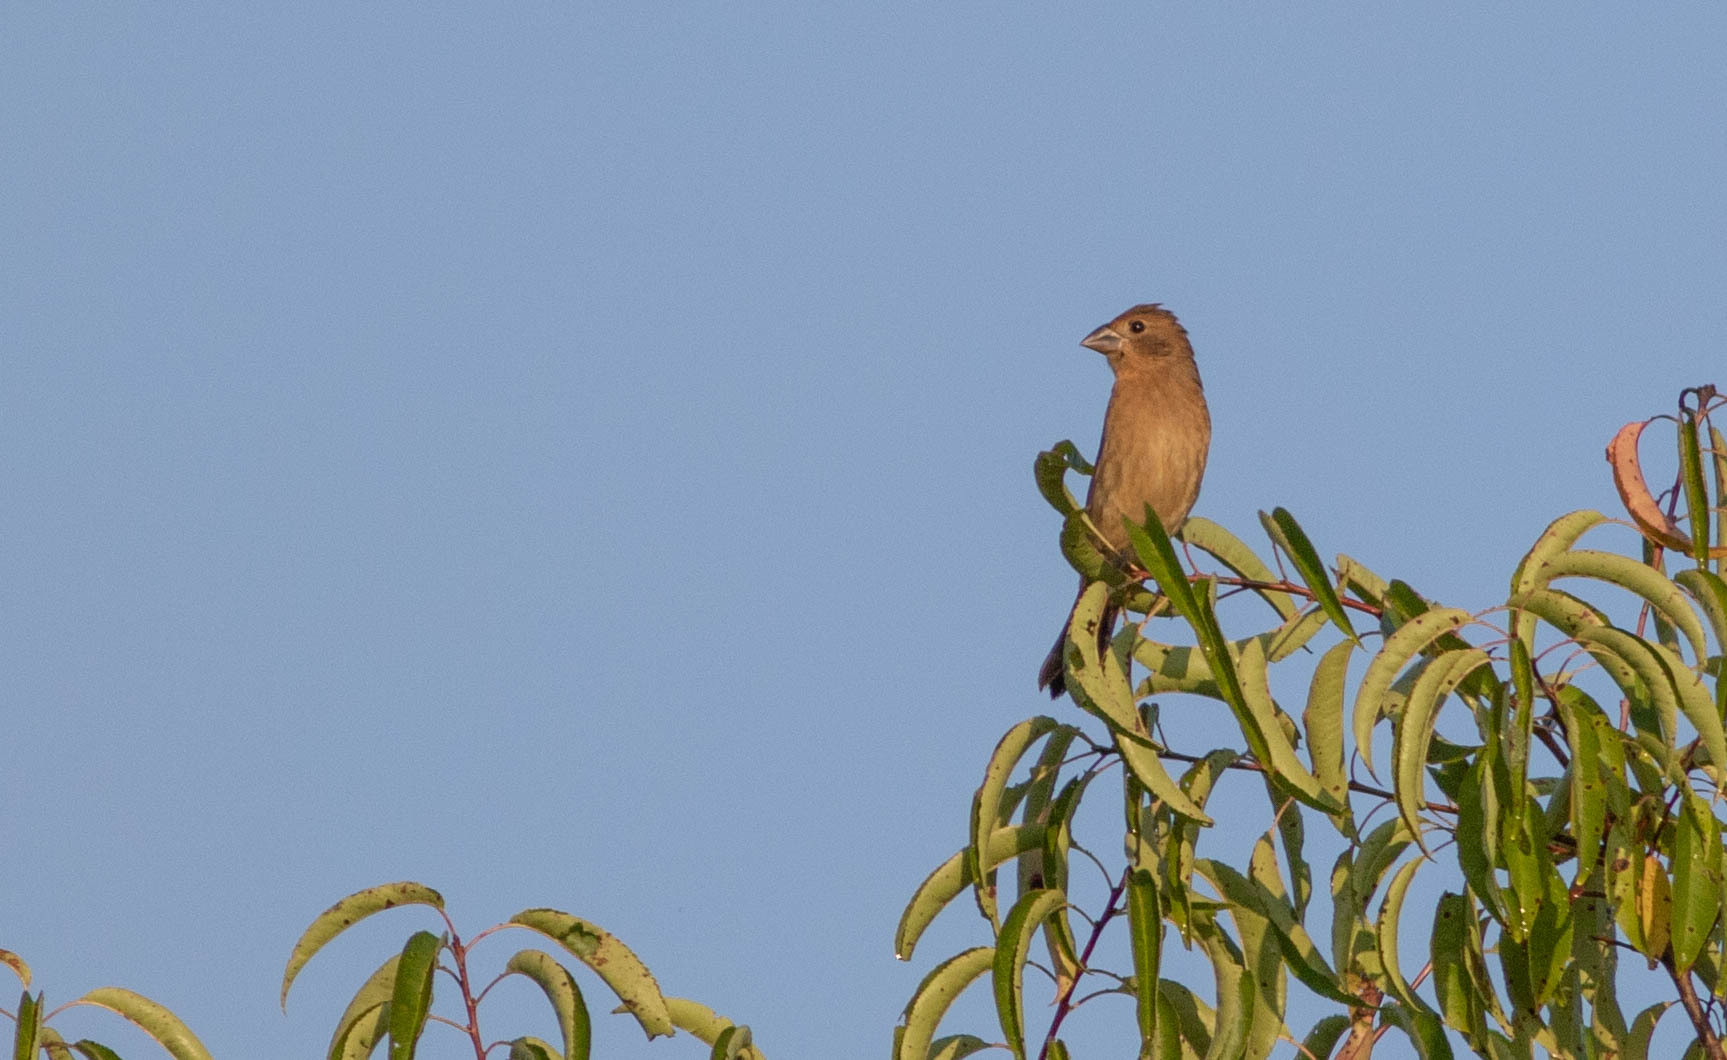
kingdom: Animalia
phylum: Chordata
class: Aves
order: Passeriformes
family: Cardinalidae
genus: Passerina
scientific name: Passerina caerulea
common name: Blue grosbeak
